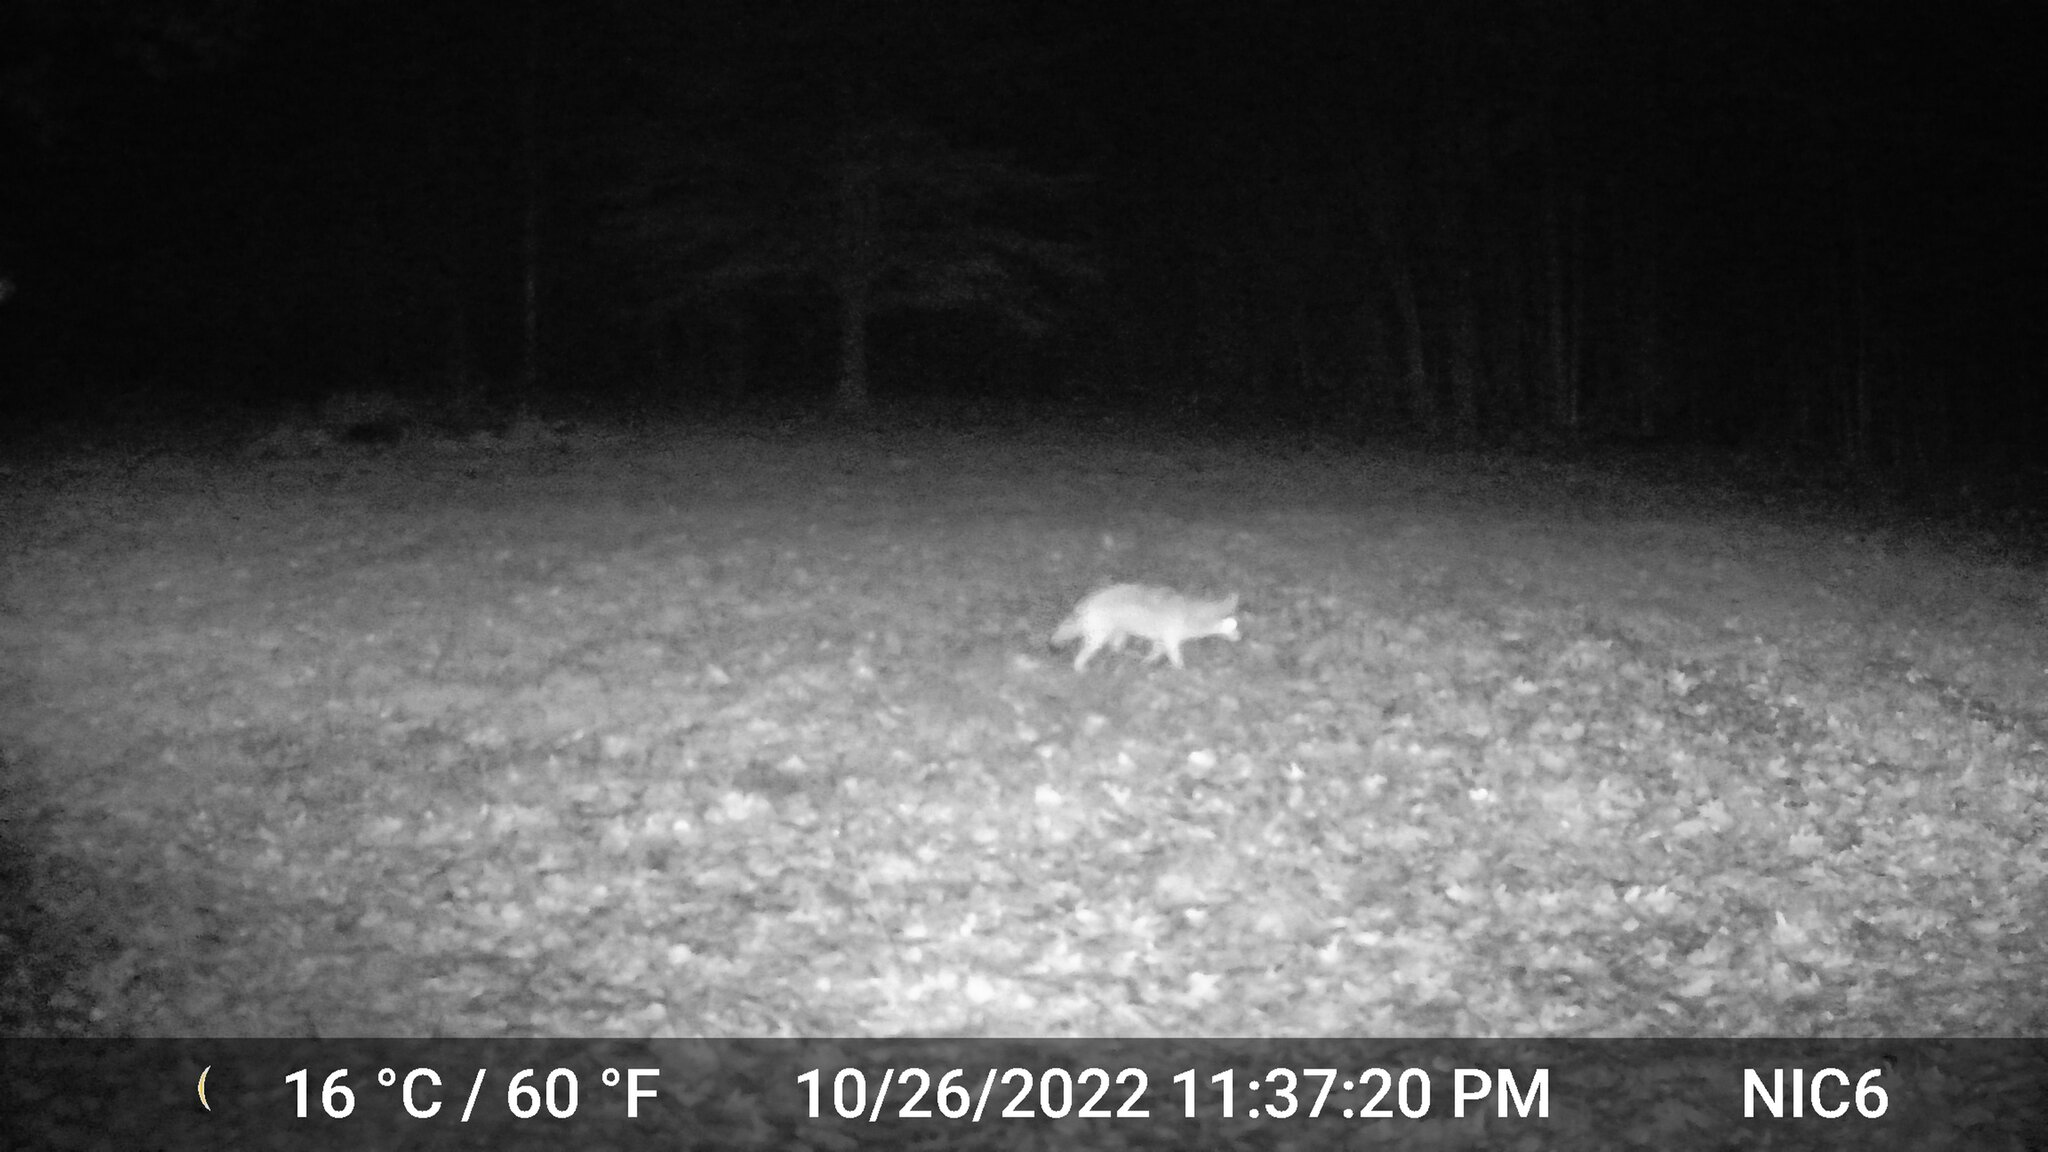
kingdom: Animalia
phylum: Chordata
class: Mammalia
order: Carnivora
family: Canidae
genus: Canis
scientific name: Canis latrans
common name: Coyote
